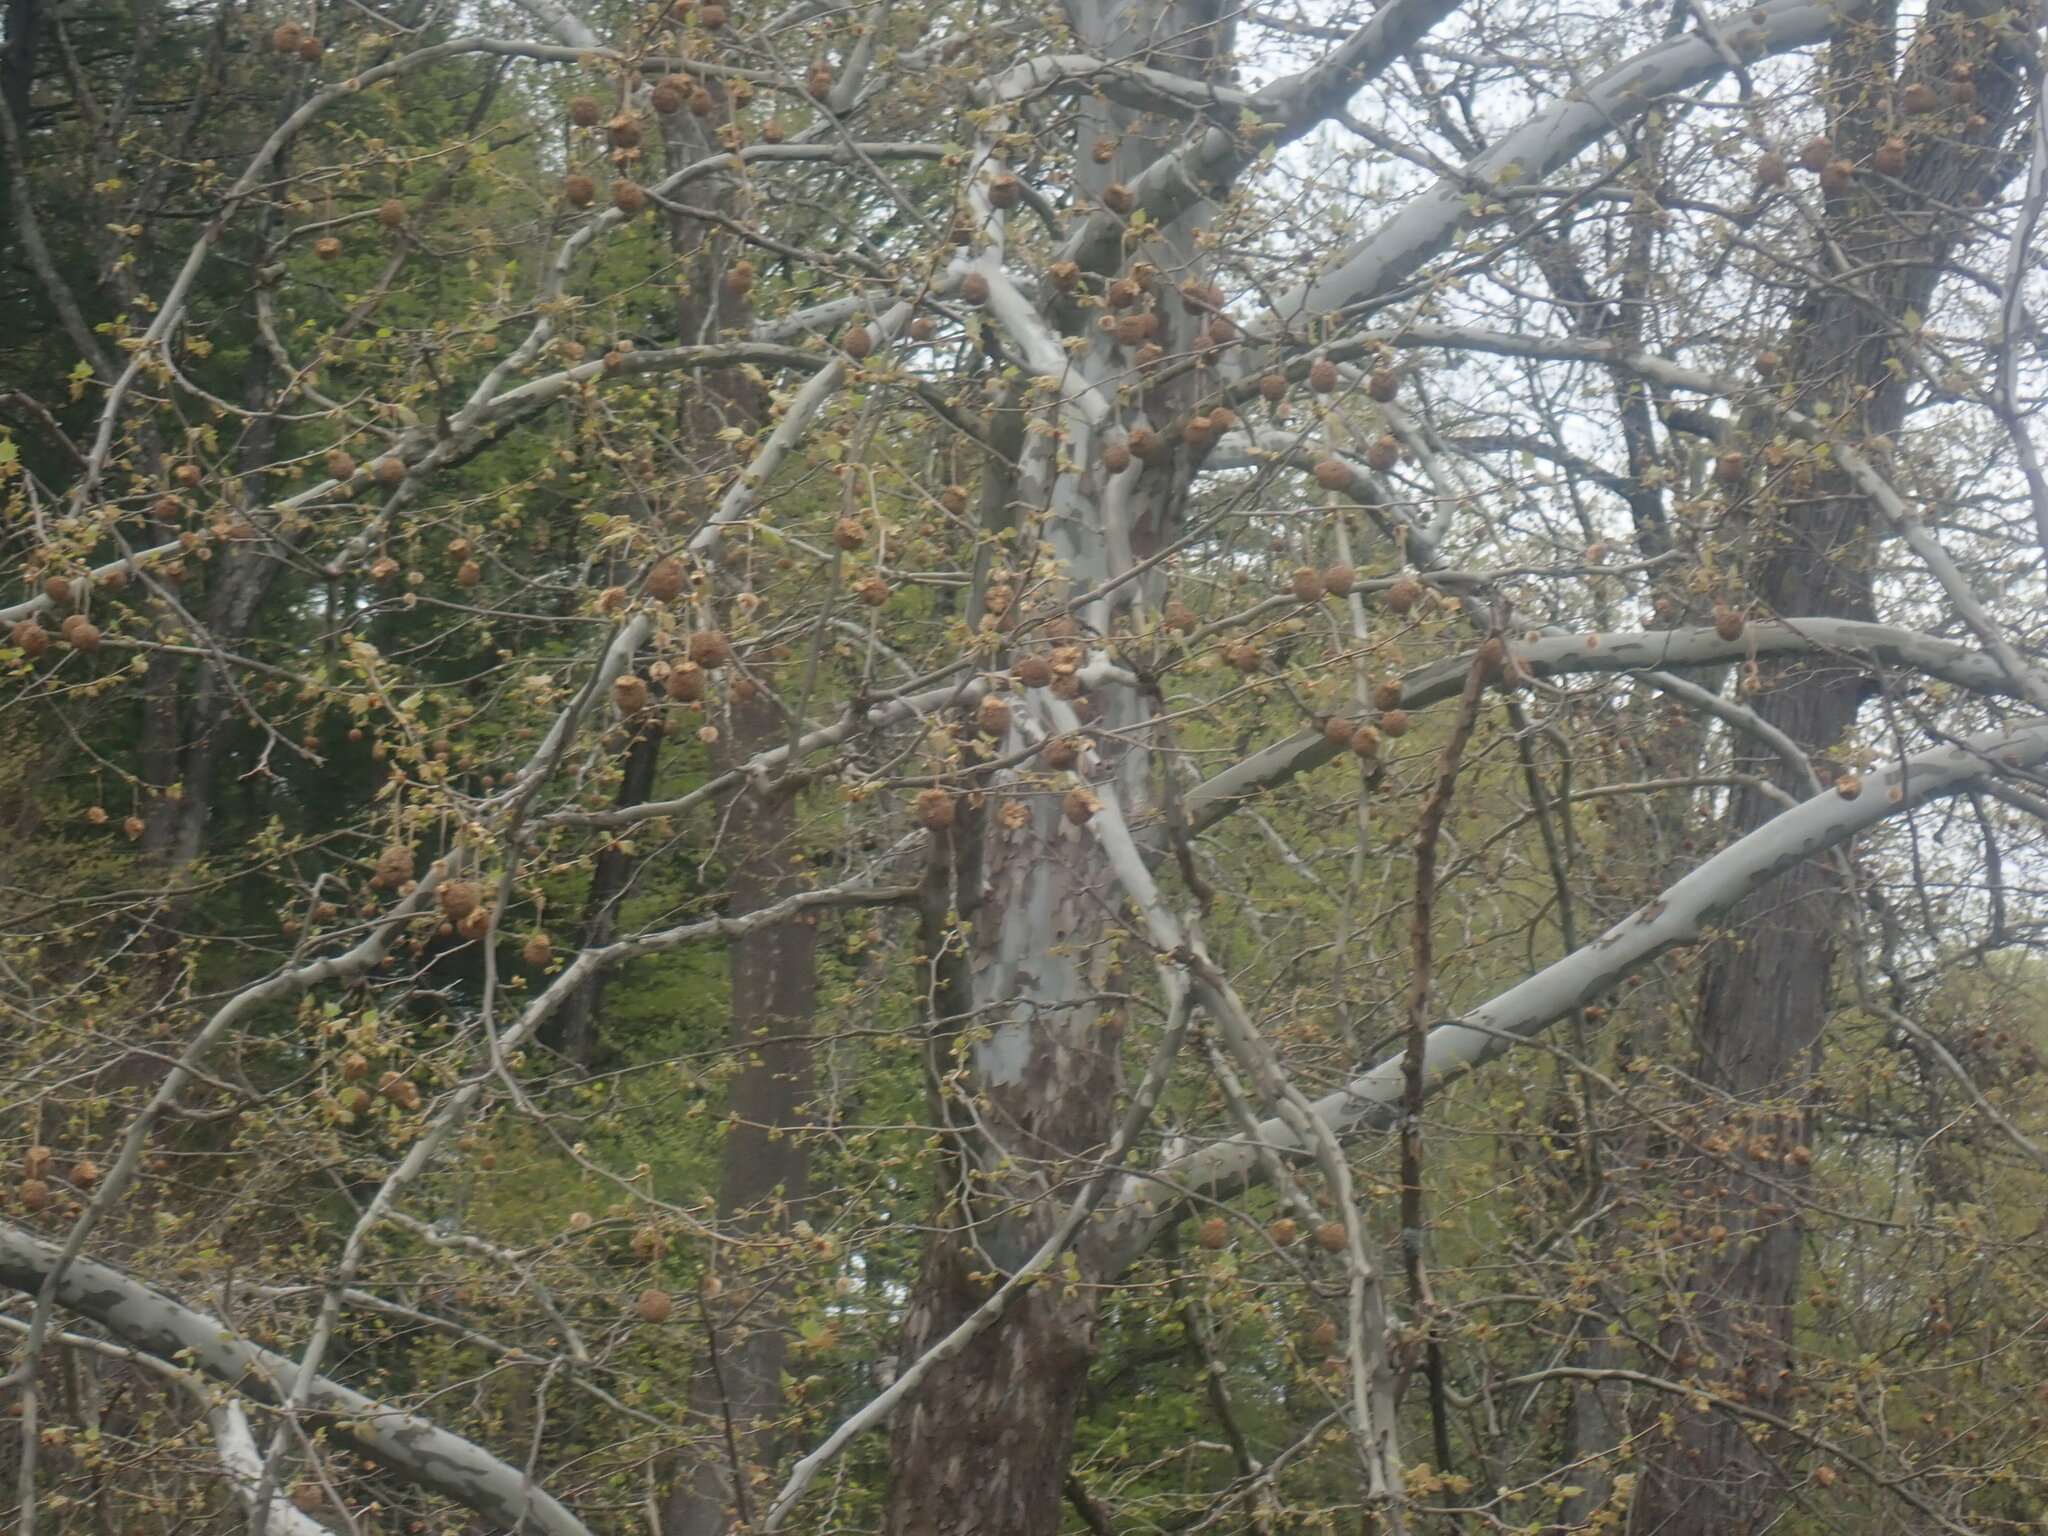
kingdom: Plantae
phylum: Tracheophyta
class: Magnoliopsida
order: Proteales
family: Platanaceae
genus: Platanus
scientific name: Platanus occidentalis
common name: American sycamore
